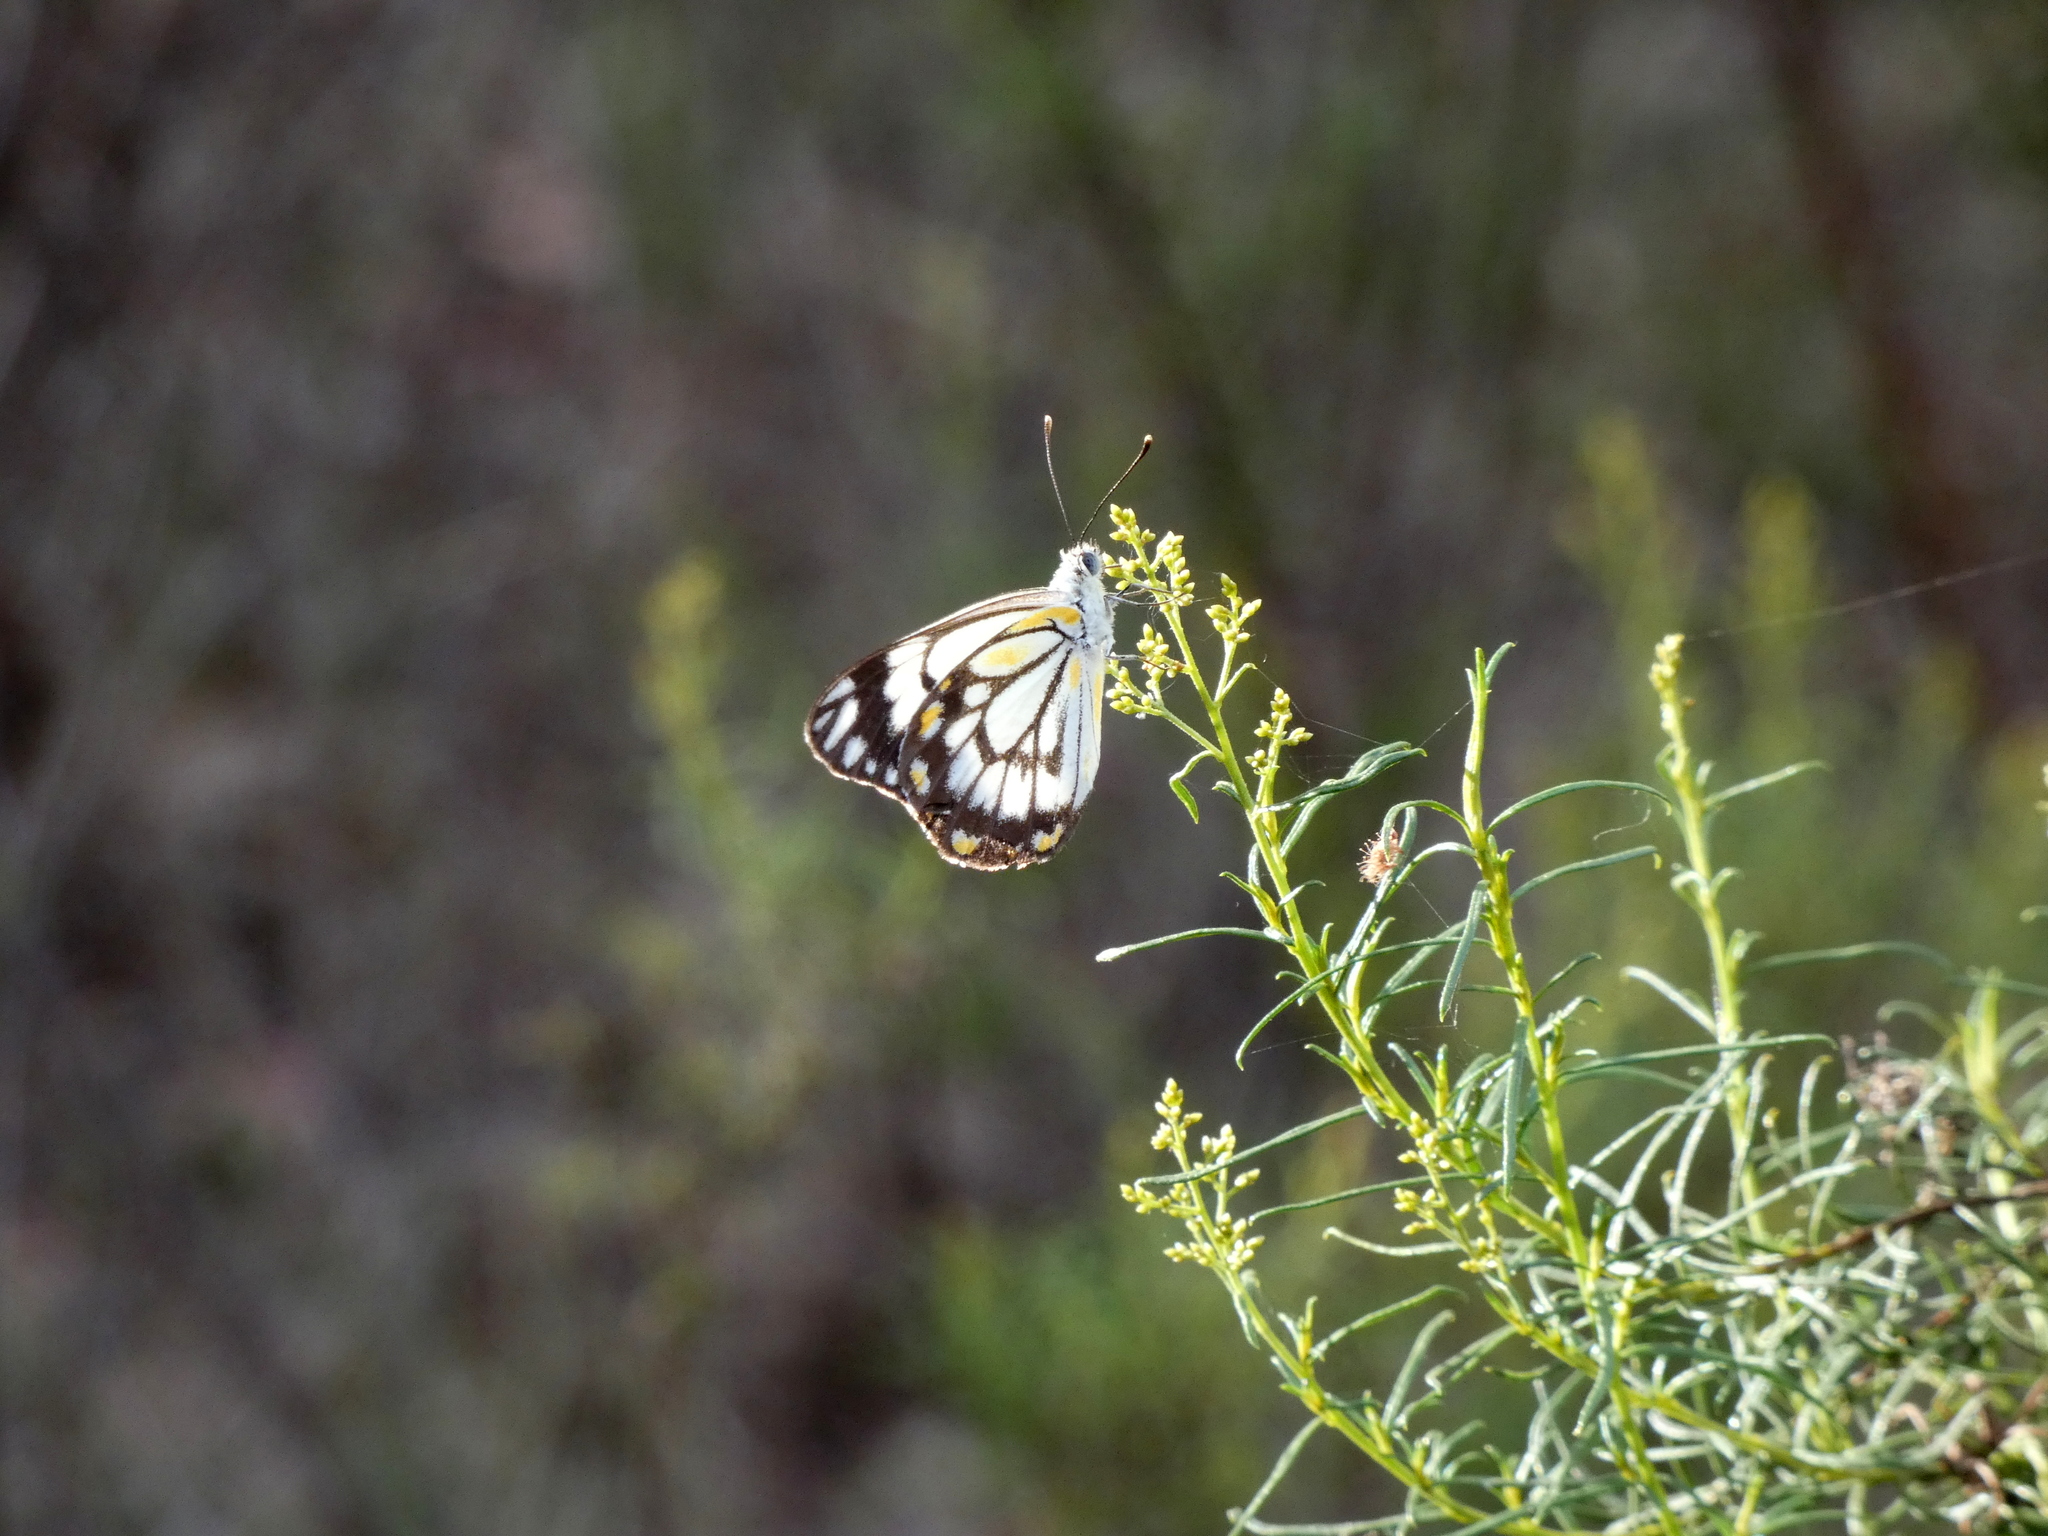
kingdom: Animalia
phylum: Arthropoda
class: Insecta
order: Lepidoptera
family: Pieridae
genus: Belenois
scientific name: Belenois java
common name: Caper white
